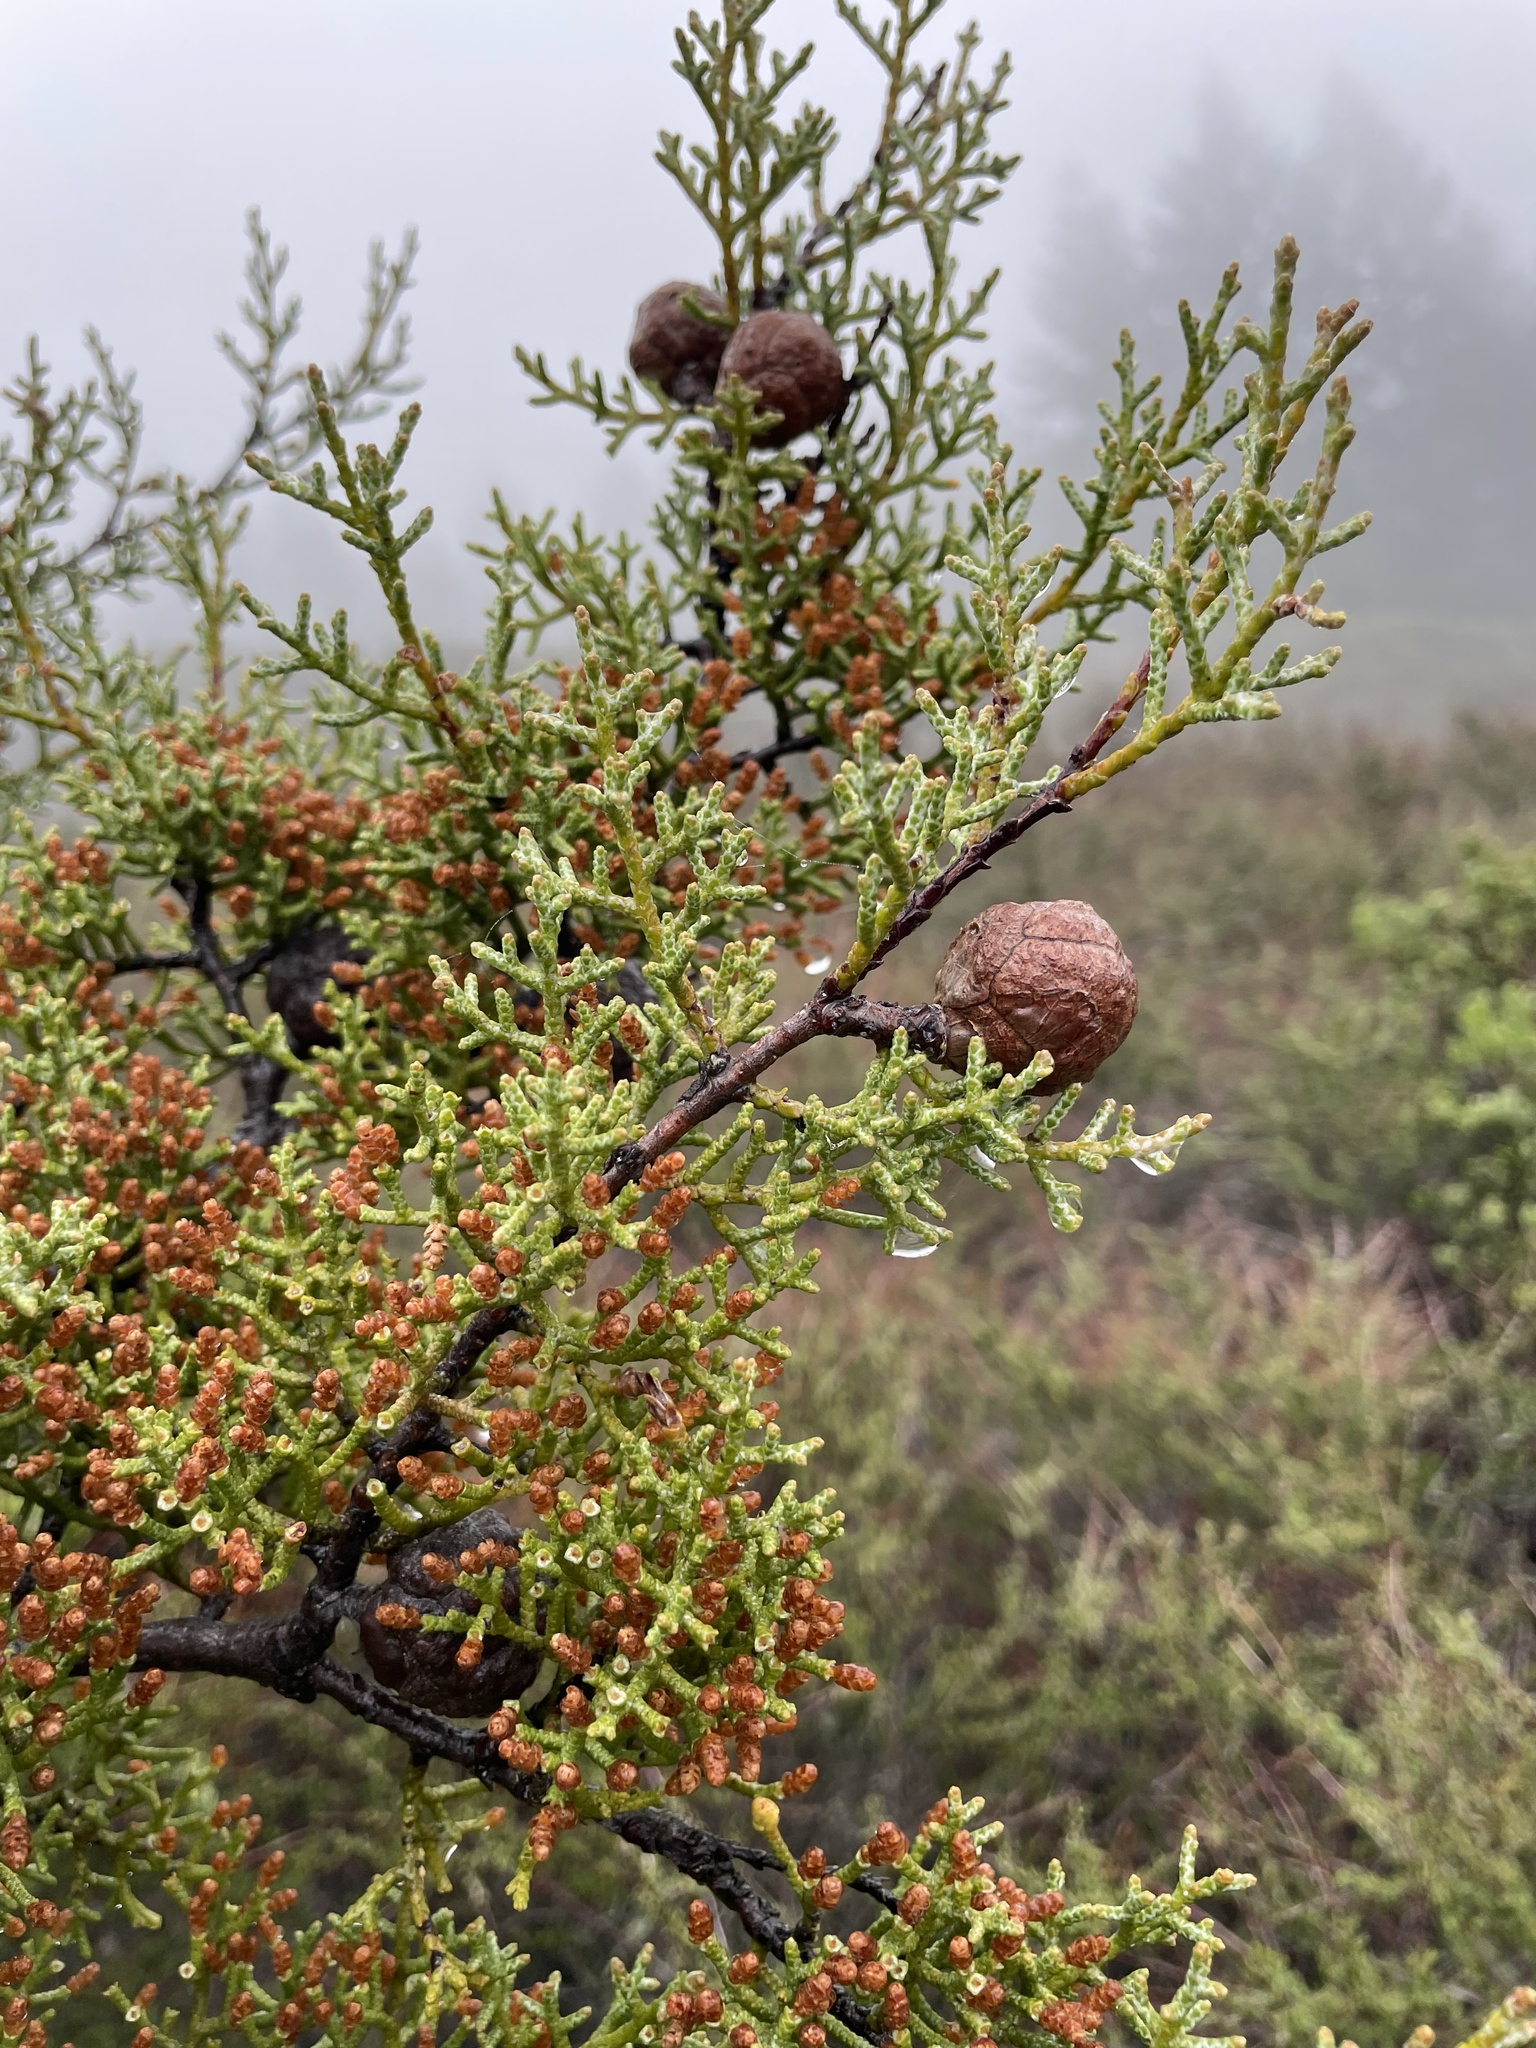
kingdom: Plantae
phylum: Tracheophyta
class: Pinopsida
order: Pinales
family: Cupressaceae
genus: Cupressus
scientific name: Cupressus sargentii
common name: Sargent cypress
